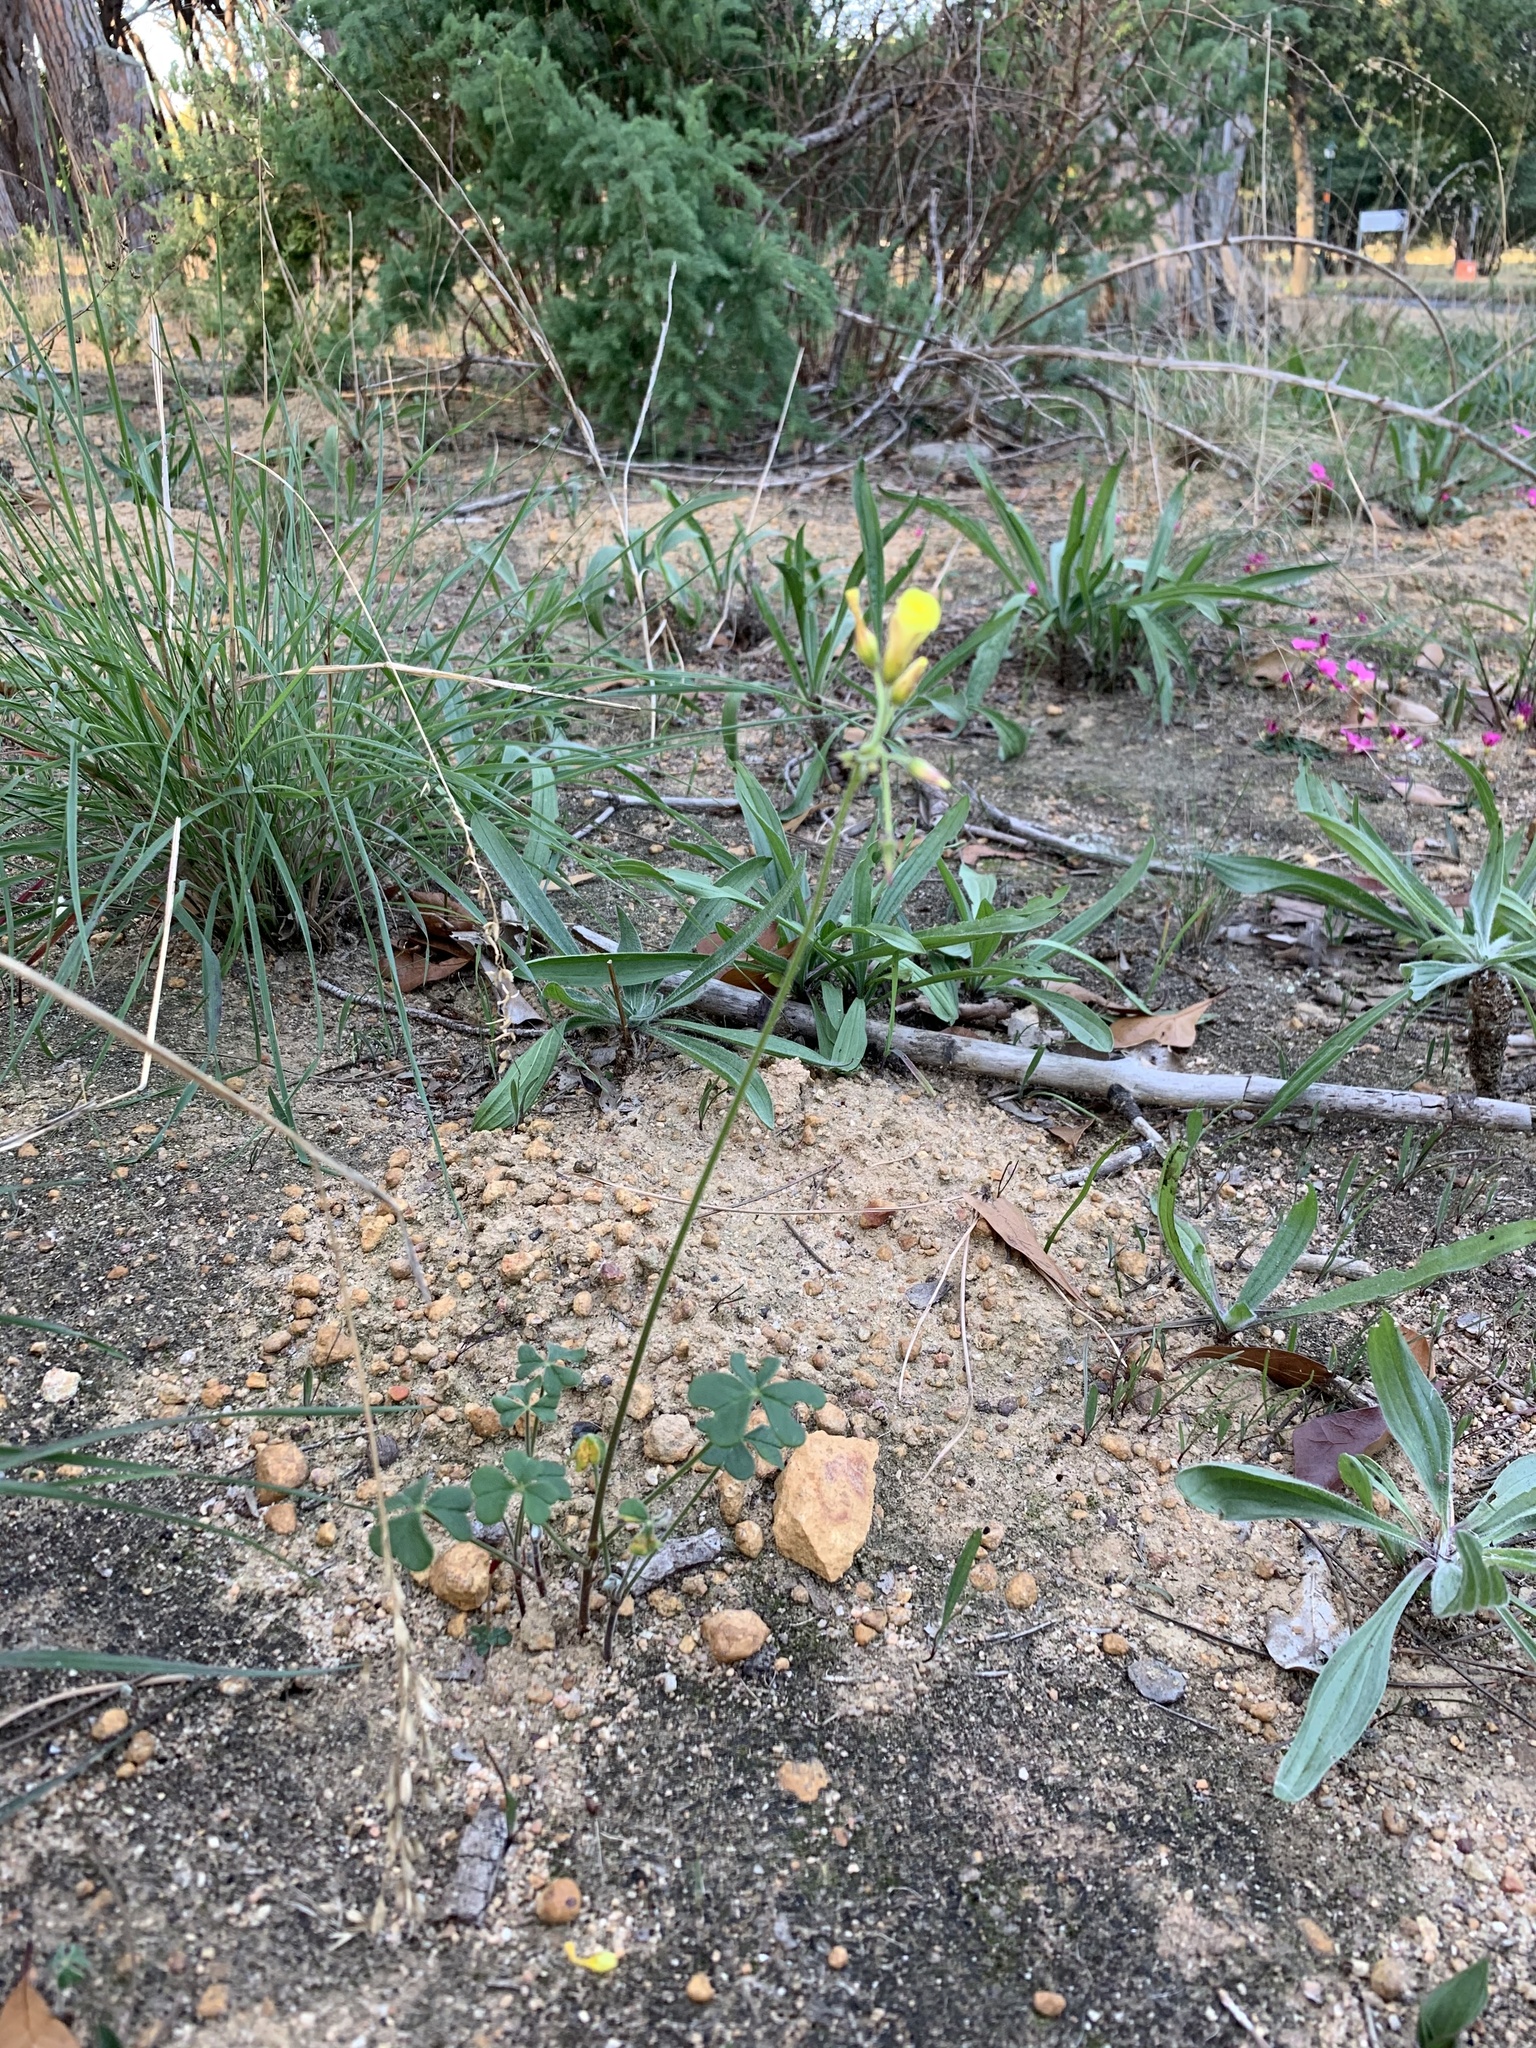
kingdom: Plantae
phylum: Tracheophyta
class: Magnoliopsida
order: Oxalidales
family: Oxalidaceae
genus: Oxalis
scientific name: Oxalis pes-caprae
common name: Bermuda-buttercup
